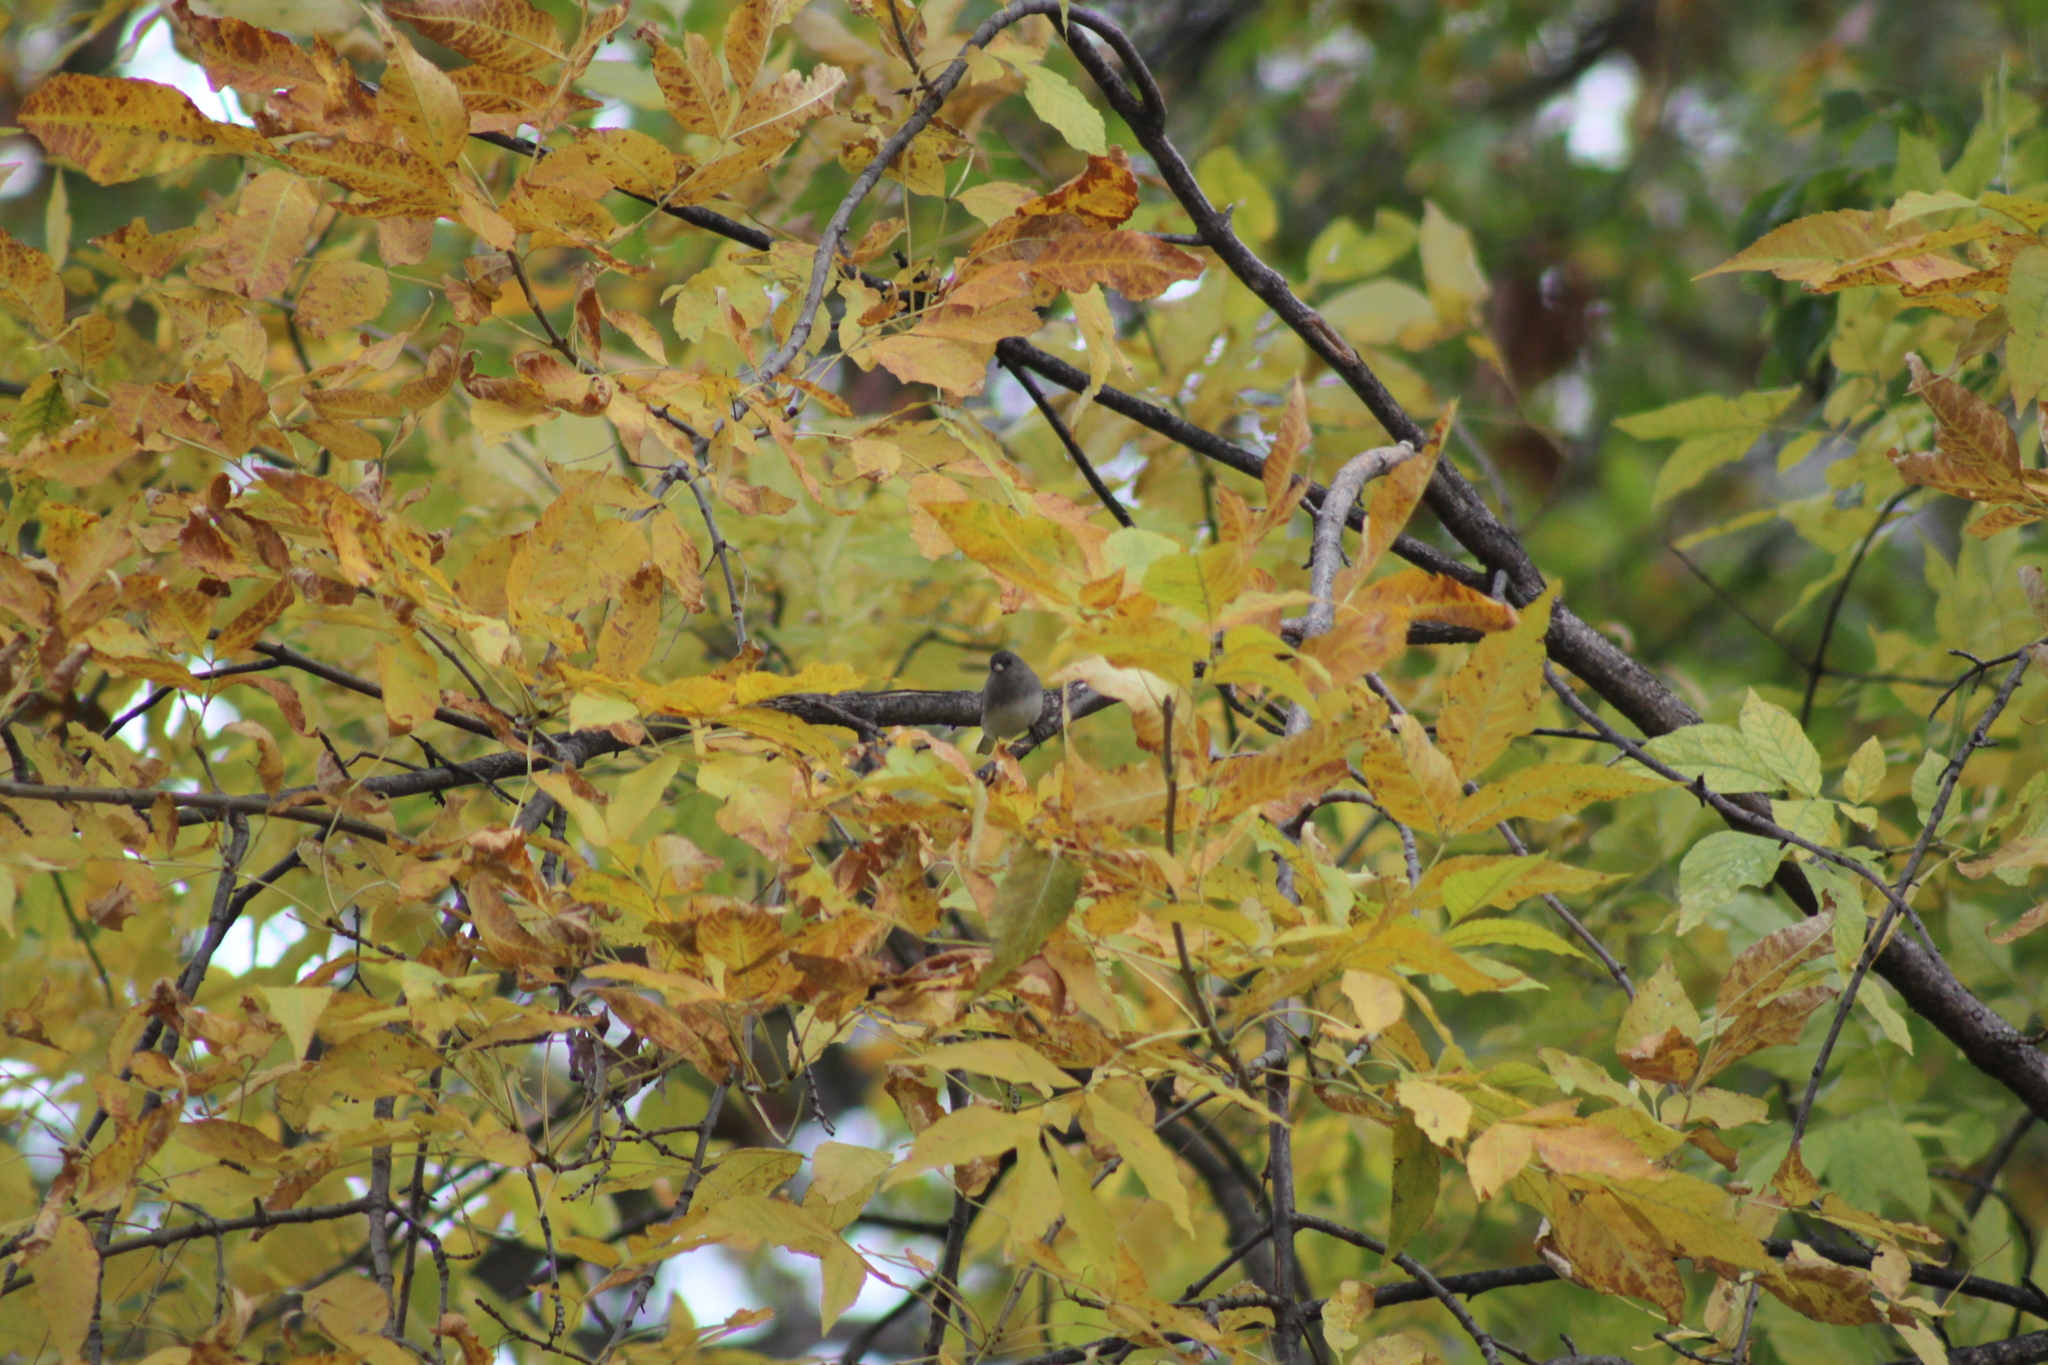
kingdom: Animalia
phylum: Chordata
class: Aves
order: Passeriformes
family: Passerellidae
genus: Junco
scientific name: Junco hyemalis
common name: Dark-eyed junco
